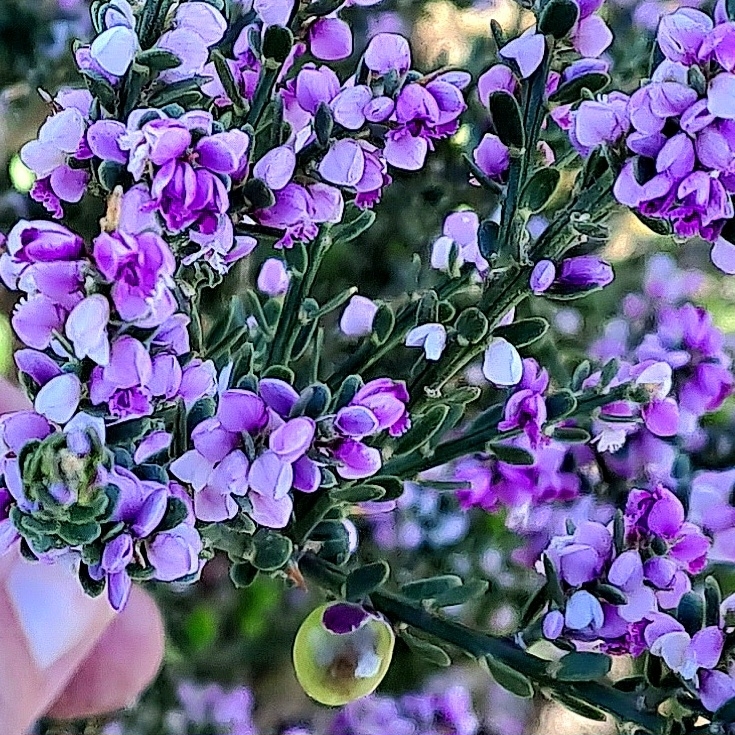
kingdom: Plantae
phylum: Tracheophyta
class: Magnoliopsida
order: Fabales
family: Polygalaceae
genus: Muraltia
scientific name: Muraltia spinosa
